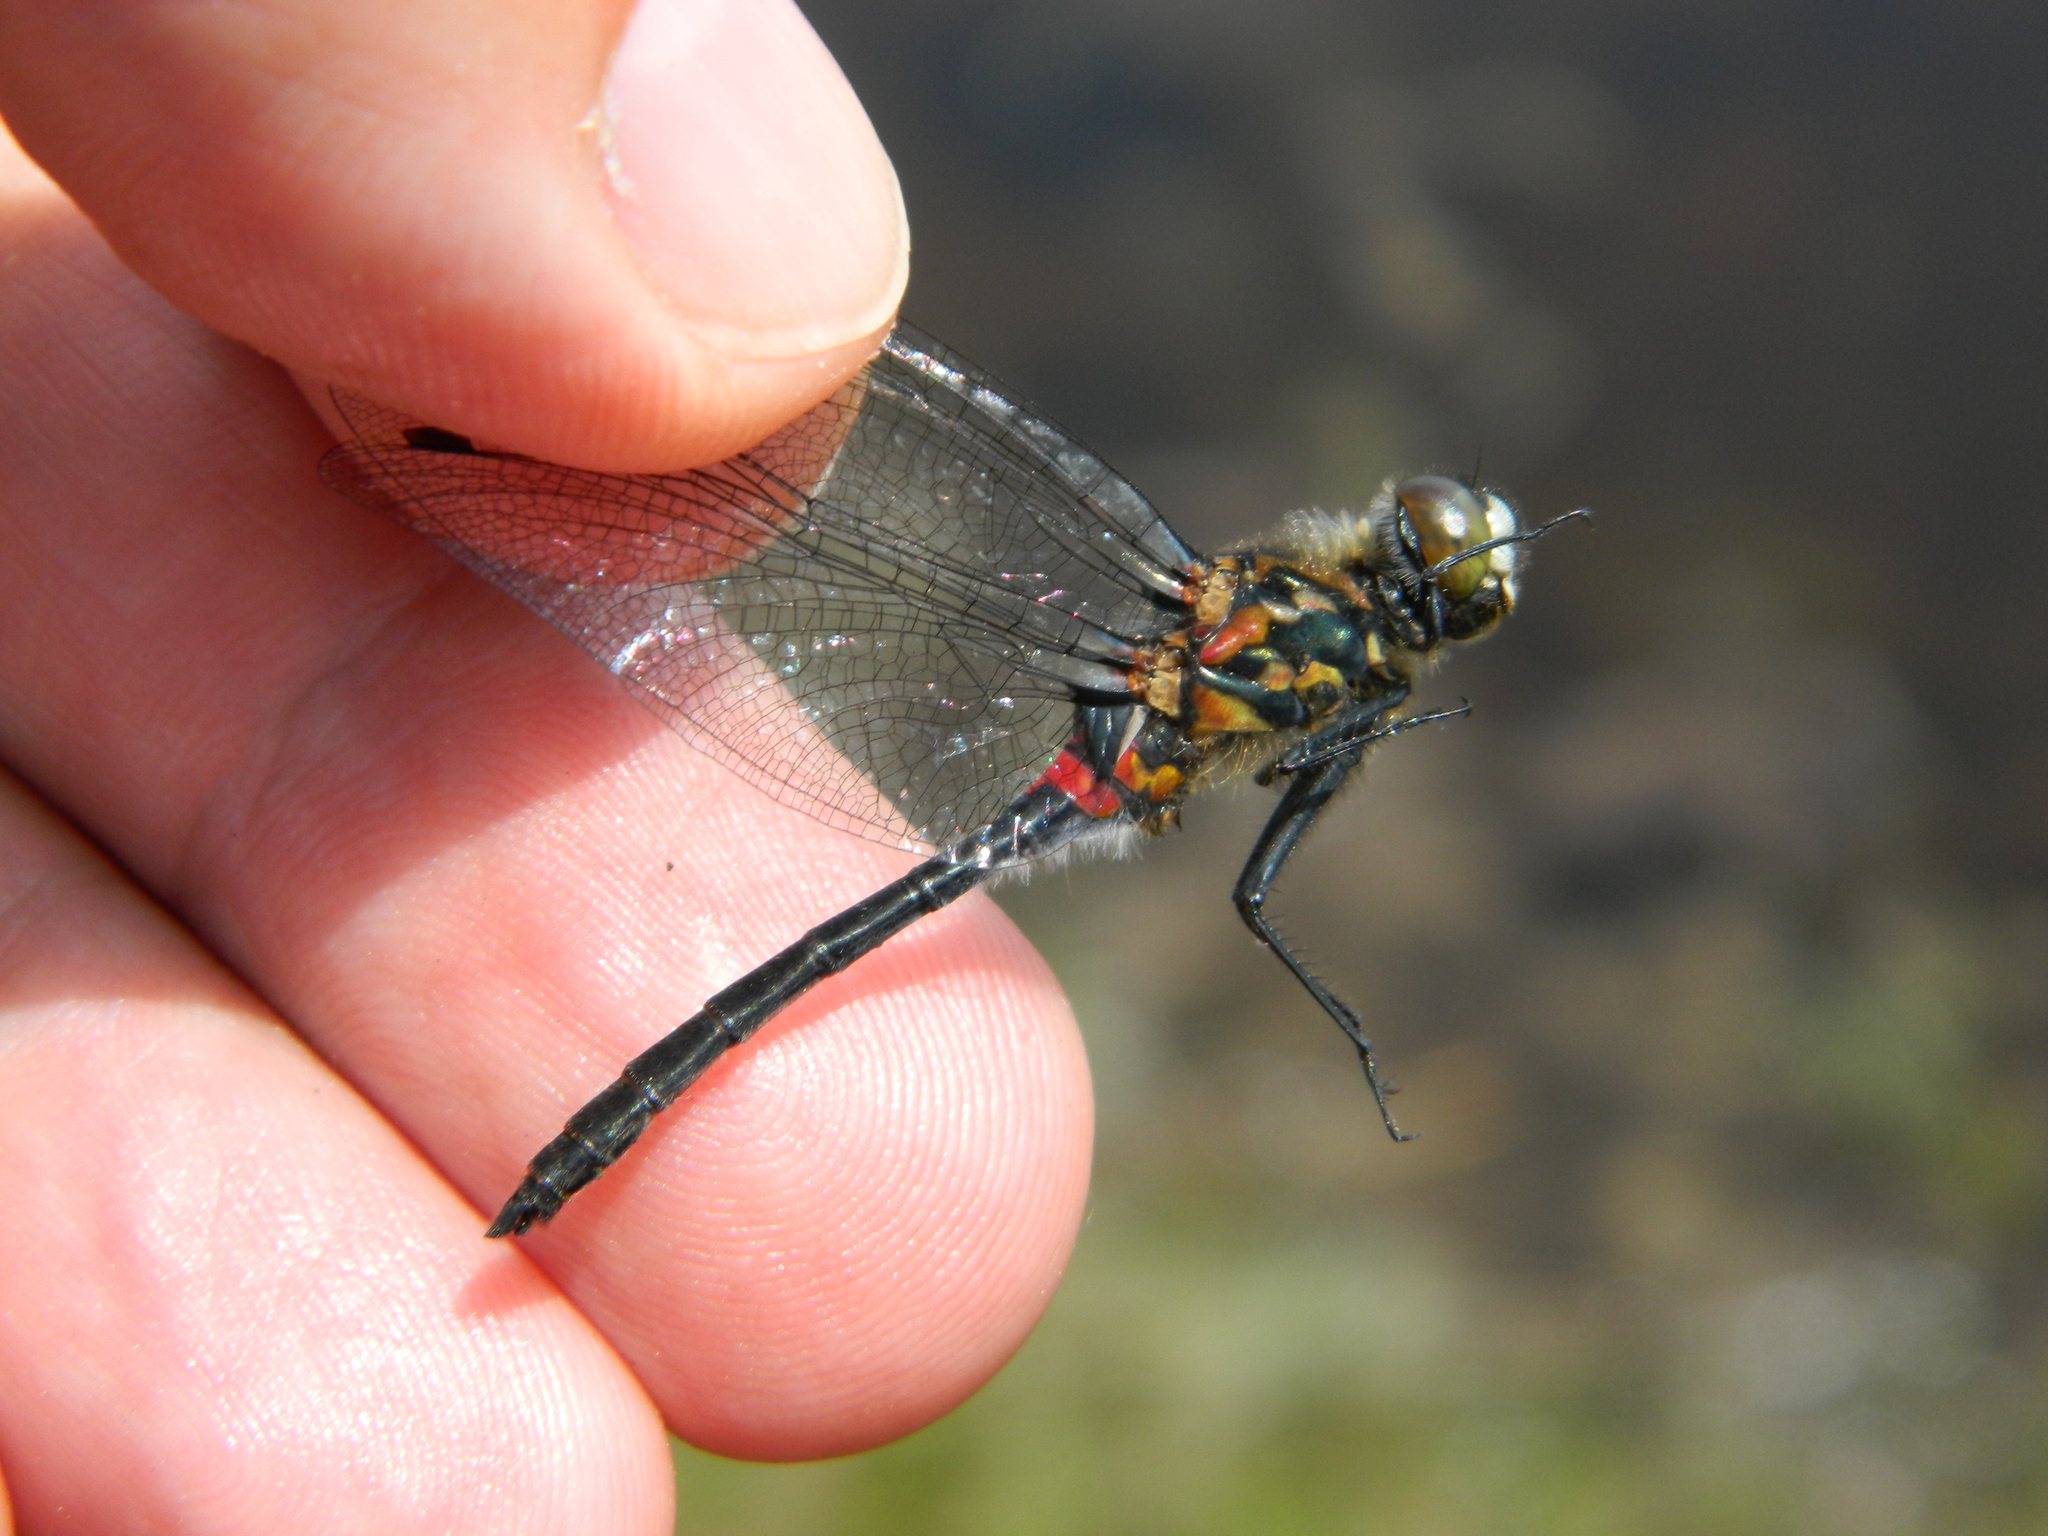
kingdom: Animalia
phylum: Arthropoda
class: Insecta
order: Odonata
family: Libellulidae
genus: Leucorrhinia
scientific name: Leucorrhinia glacialis
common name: Crimson-ringed whiteface
